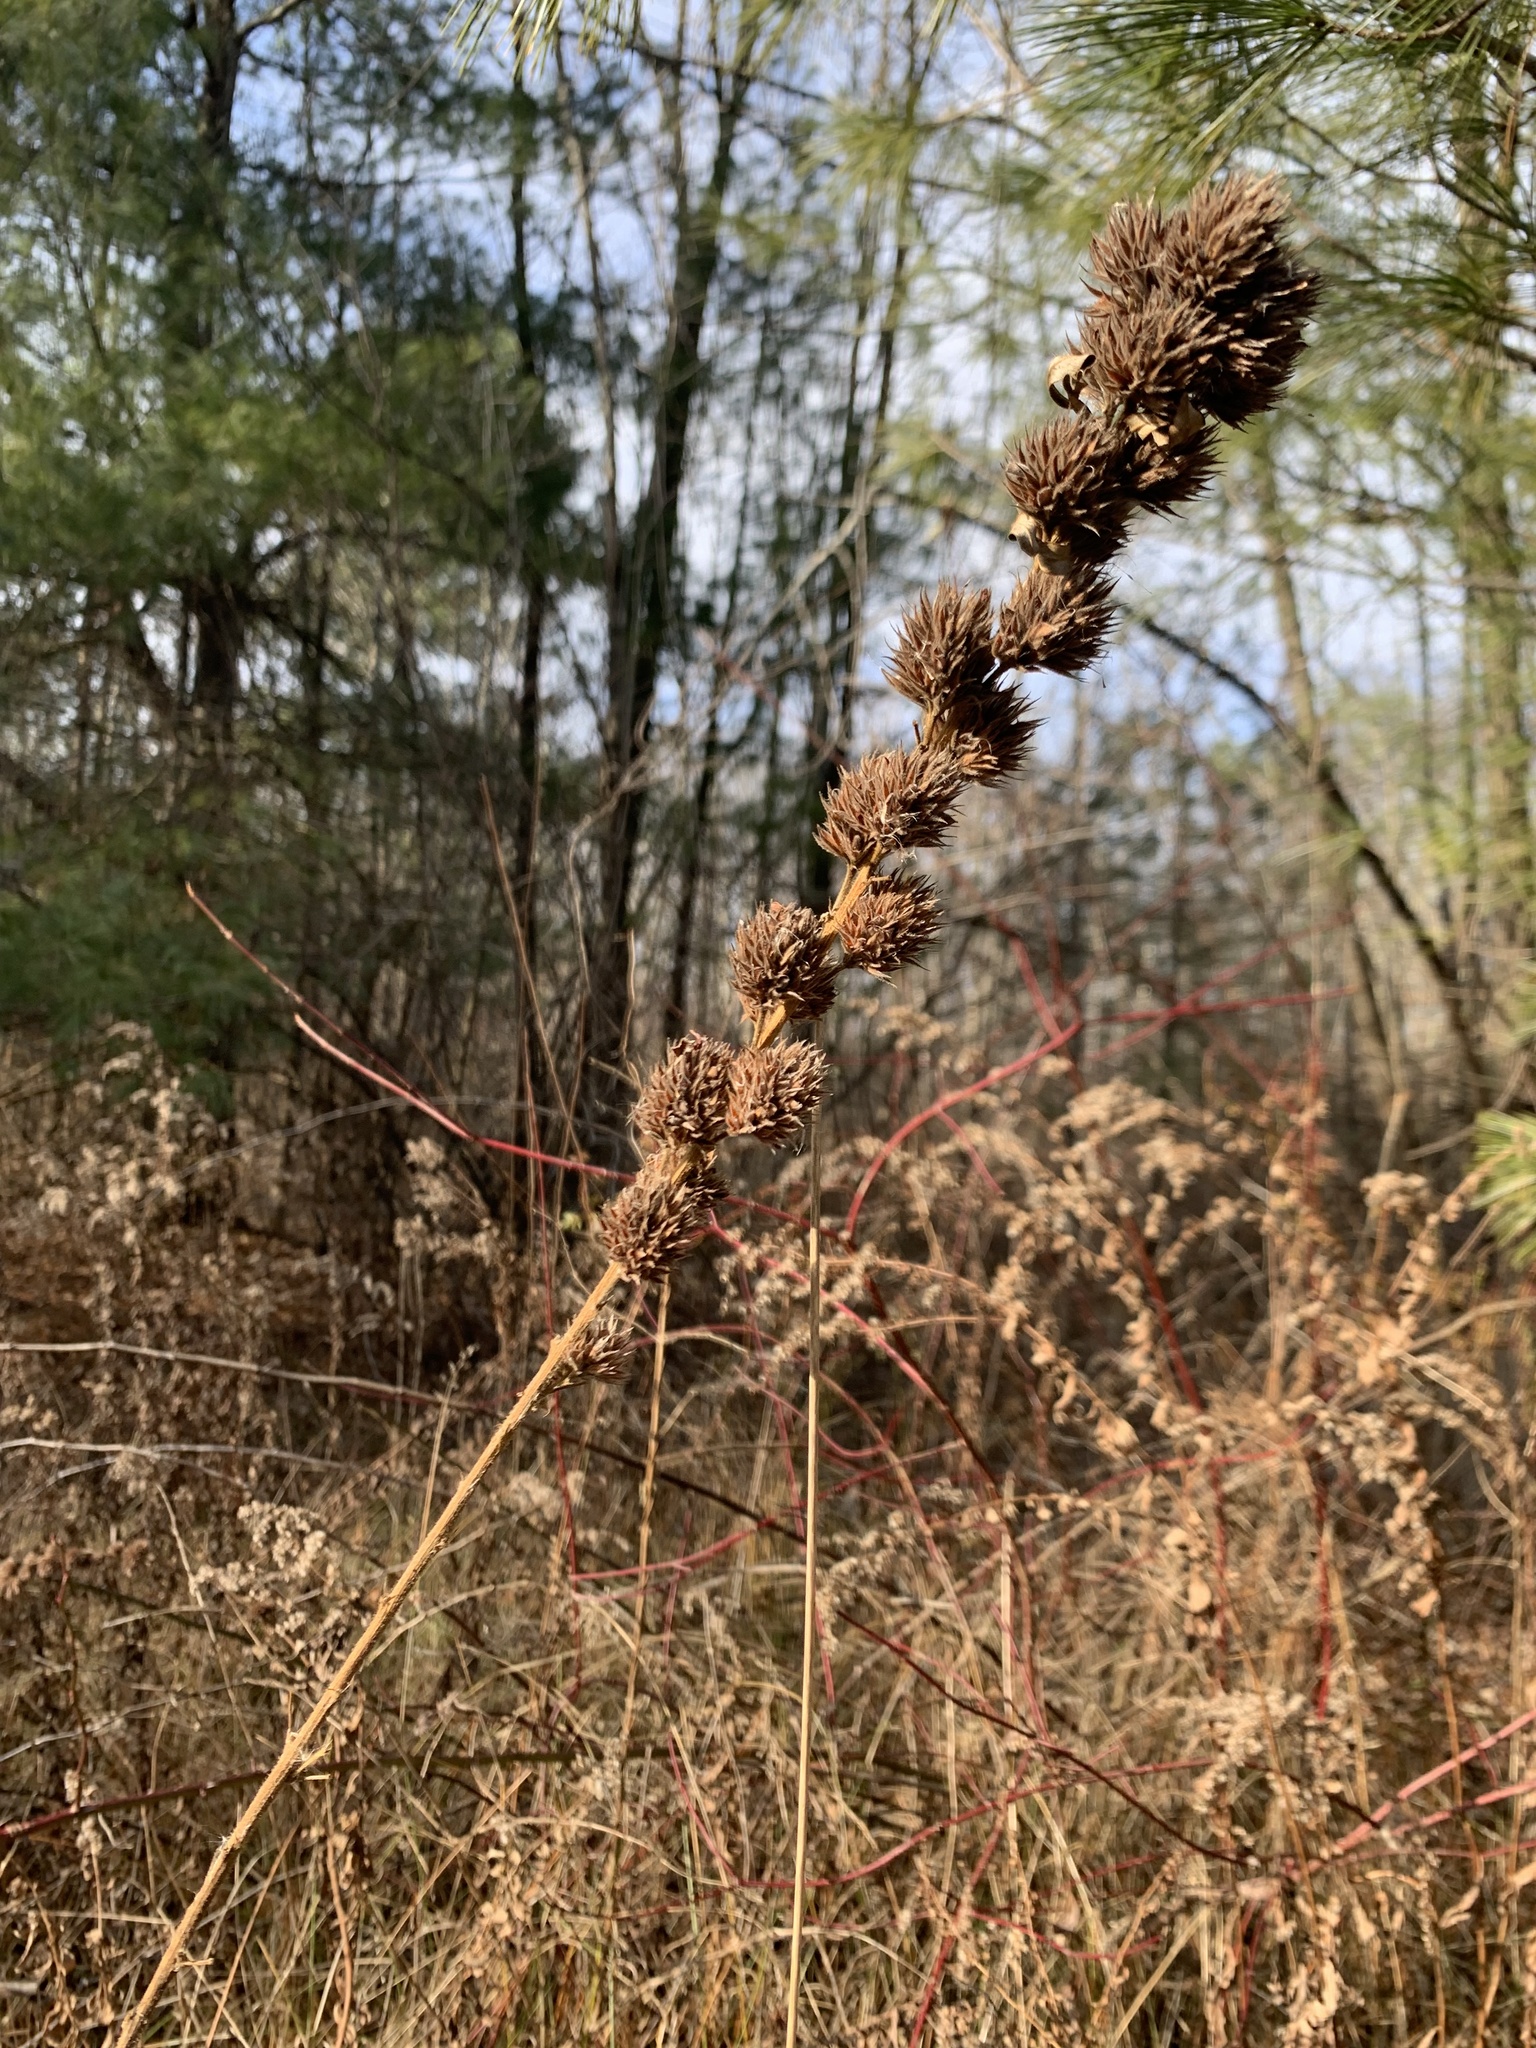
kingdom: Plantae
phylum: Tracheophyta
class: Magnoliopsida
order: Fabales
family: Fabaceae
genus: Lespedeza
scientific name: Lespedeza capitata
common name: Dusty clover
